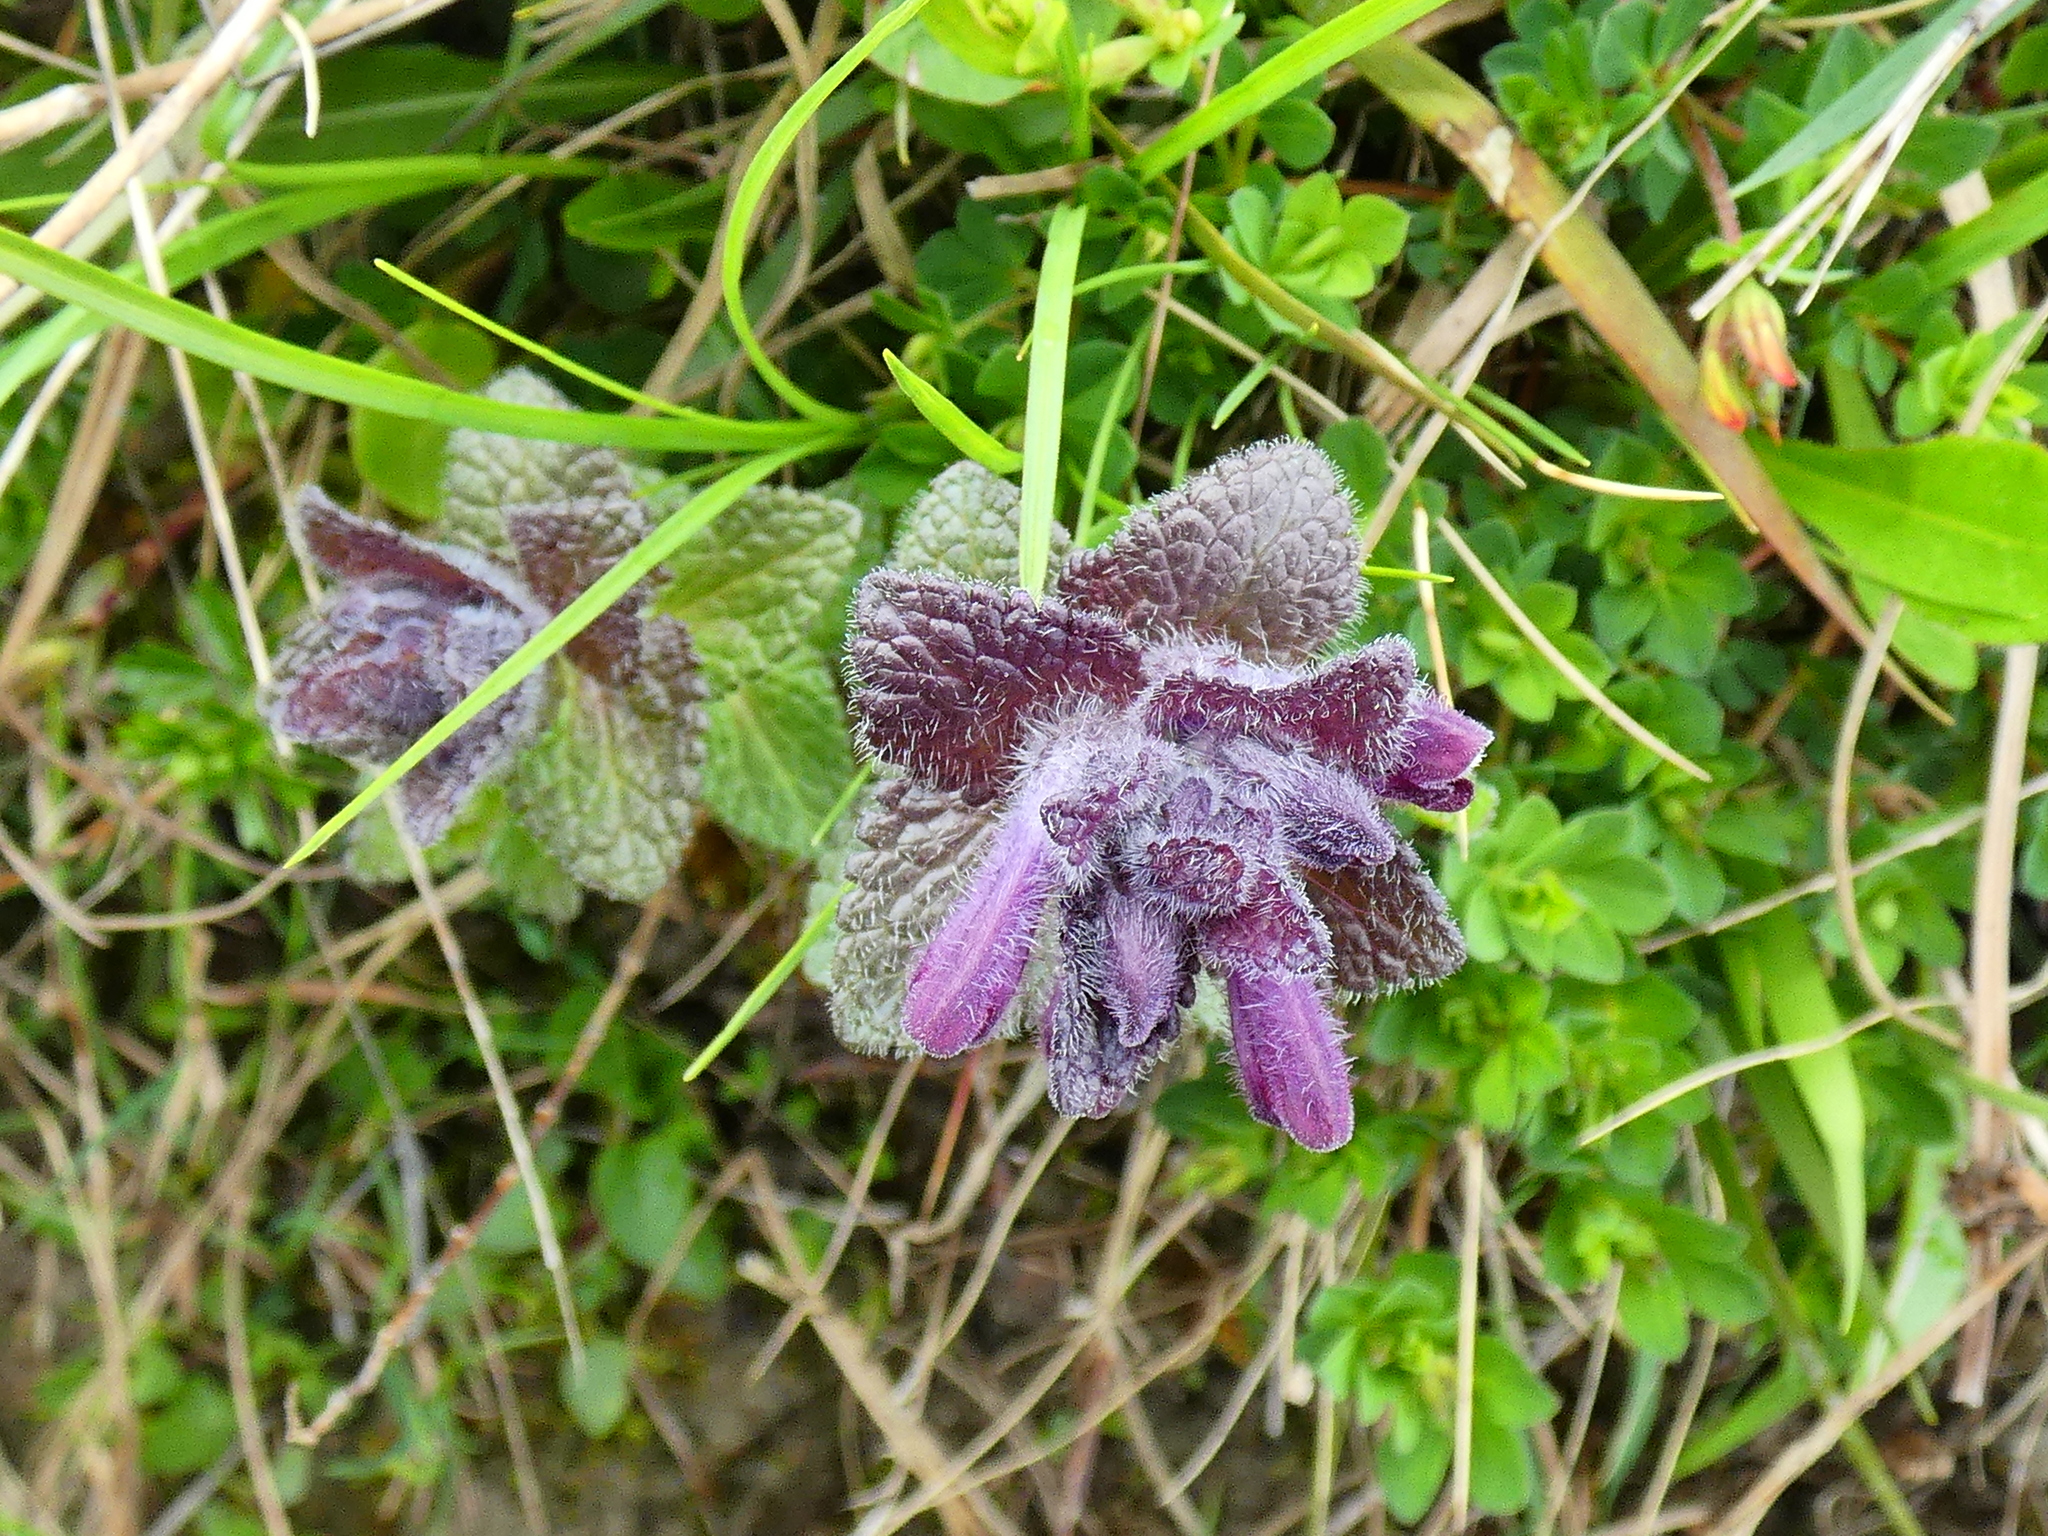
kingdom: Plantae
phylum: Tracheophyta
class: Magnoliopsida
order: Lamiales
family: Orobanchaceae
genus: Bartsia
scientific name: Bartsia alpina
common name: Alpine bartsia
